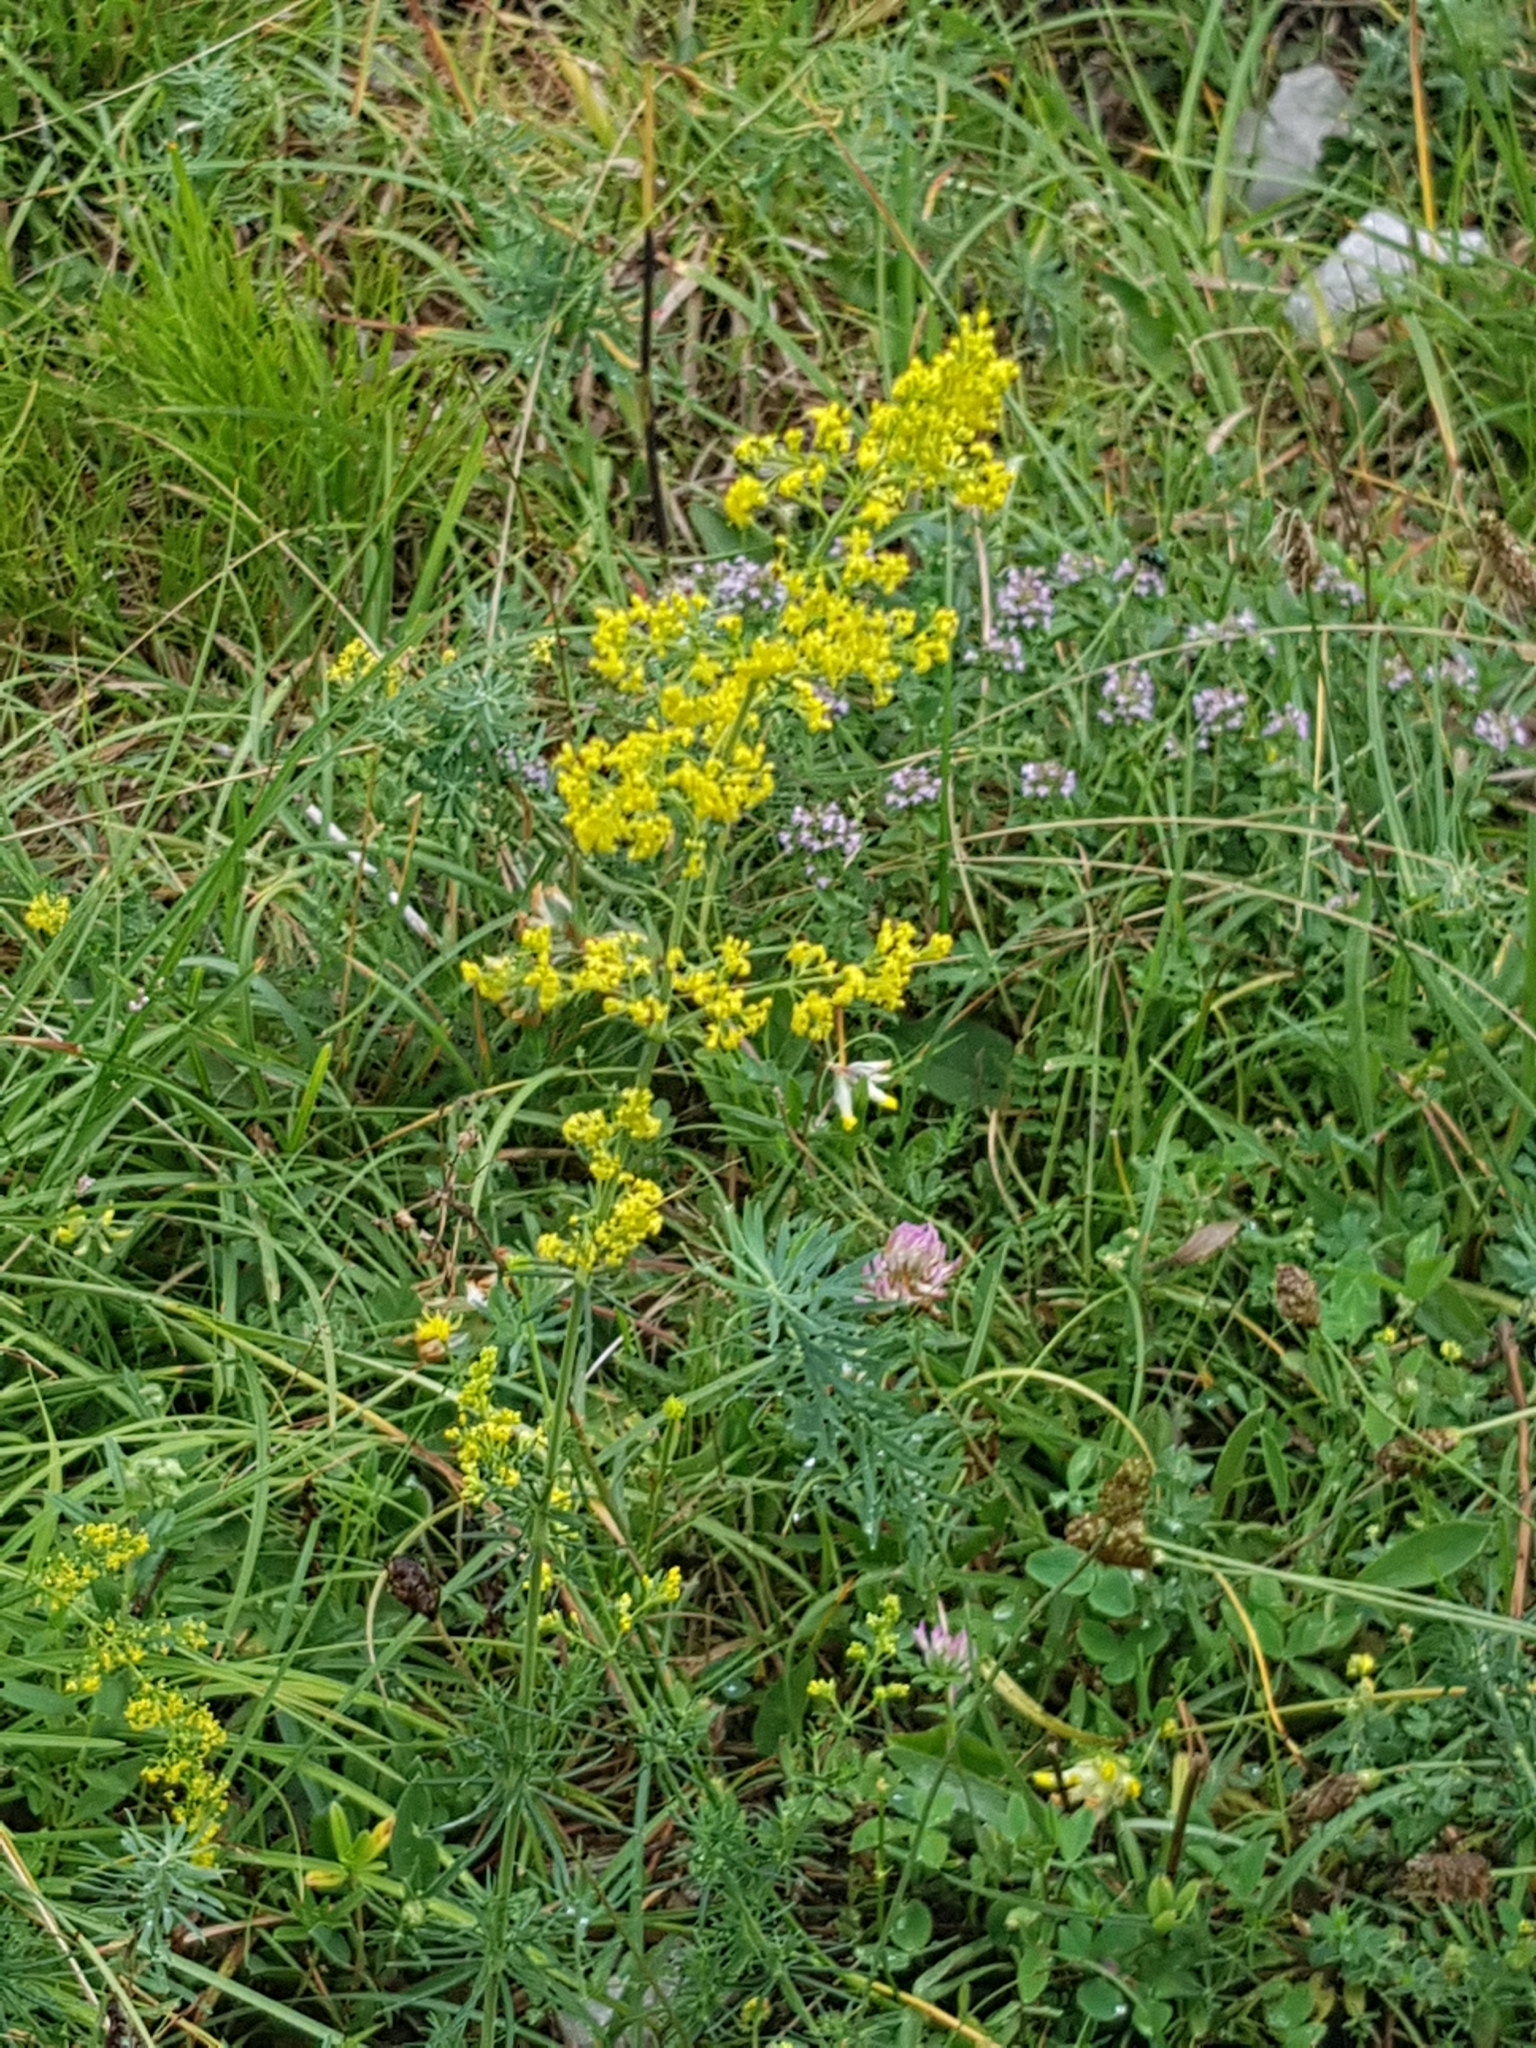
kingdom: Plantae
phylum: Tracheophyta
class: Magnoliopsida
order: Gentianales
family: Rubiaceae
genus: Galium
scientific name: Galium verum
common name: Lady's bedstraw
